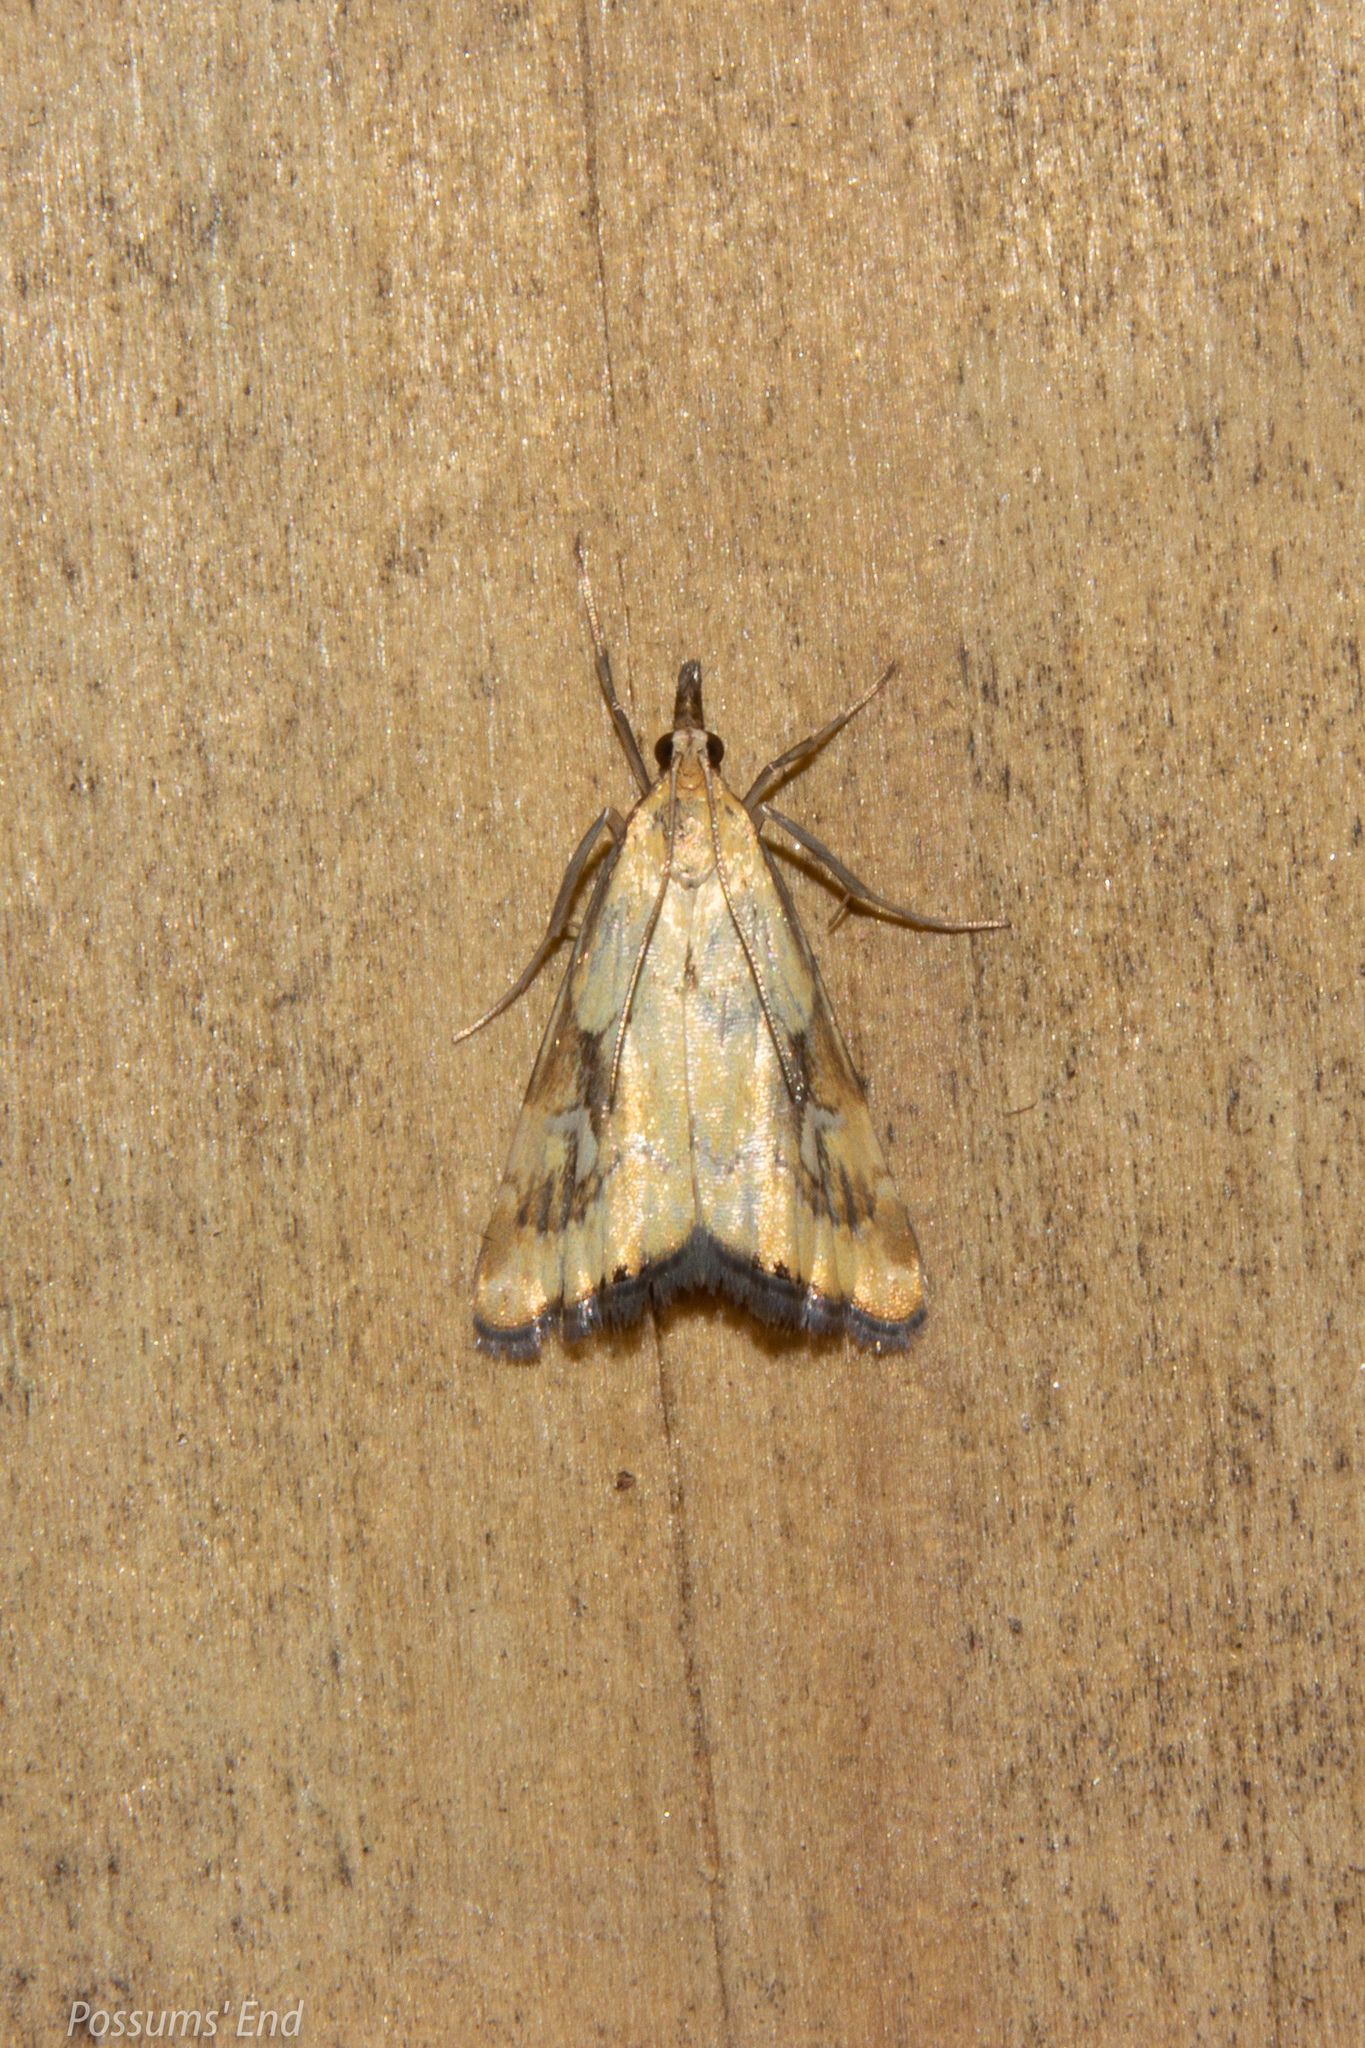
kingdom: Animalia
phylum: Arthropoda
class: Insecta
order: Lepidoptera
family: Crambidae
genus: Glaucocharis
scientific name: Glaucocharis lepidella
